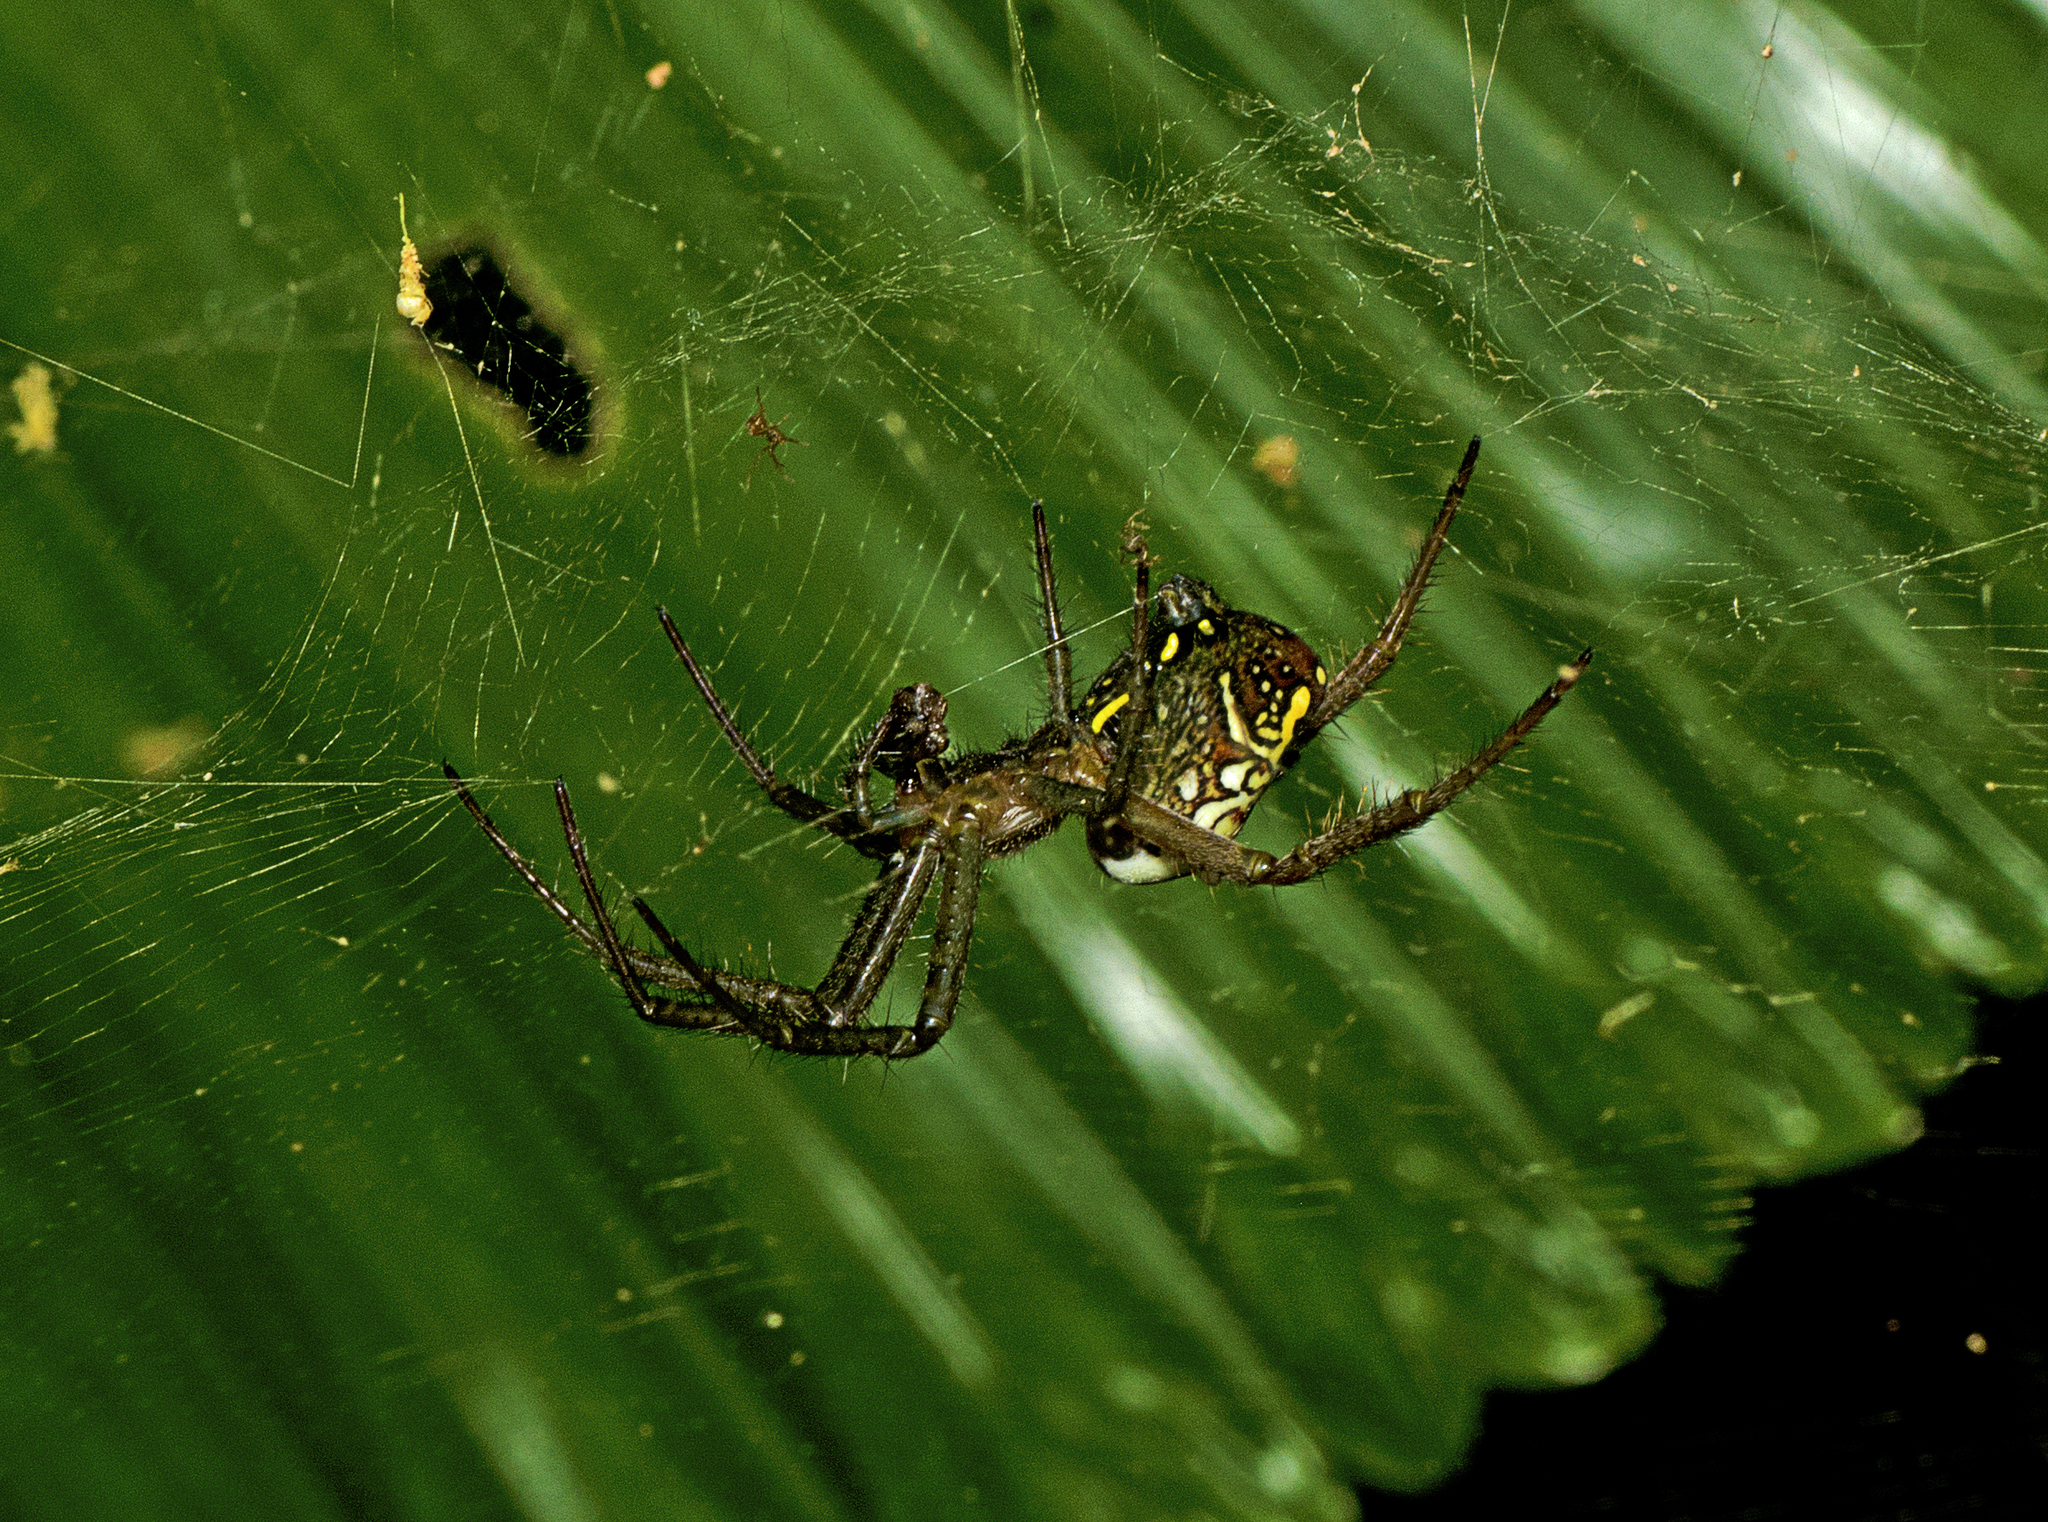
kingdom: Chromista
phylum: Ochrophyta
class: Dictyochophyceae
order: Pedinellales
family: Cyrtophoraceae
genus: Cyrtophora
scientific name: Cyrtophora moluccensis
